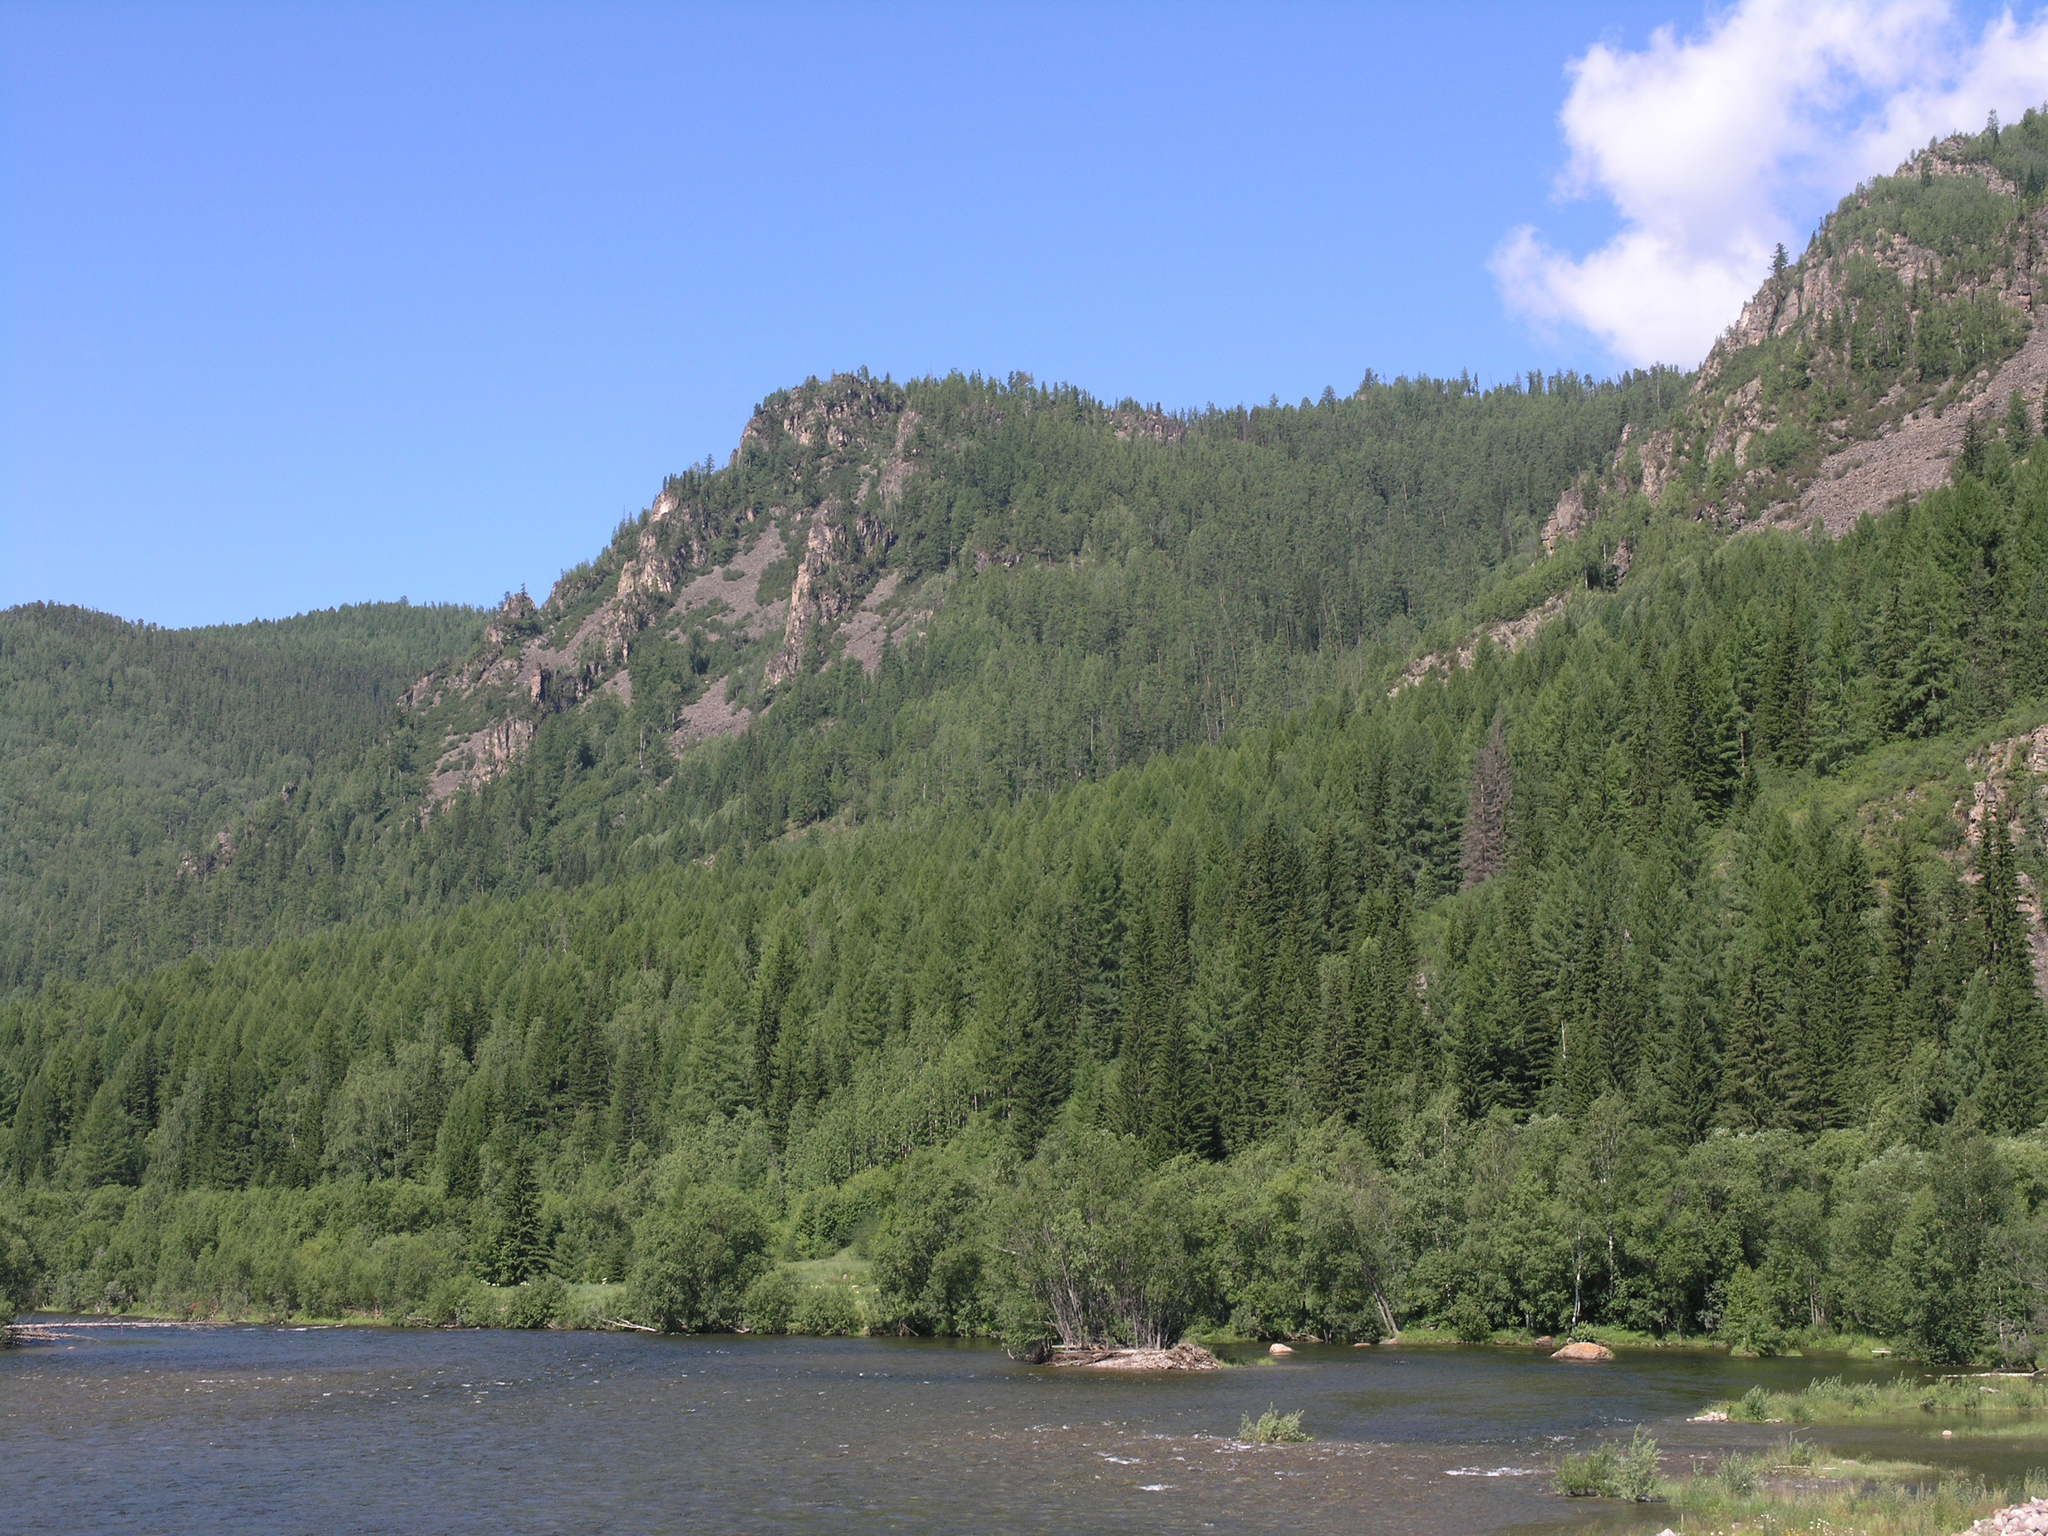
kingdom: Plantae
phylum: Tracheophyta
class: Pinopsida
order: Pinales
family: Pinaceae
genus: Picea
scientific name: Picea obovata
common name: Siberian spruce
